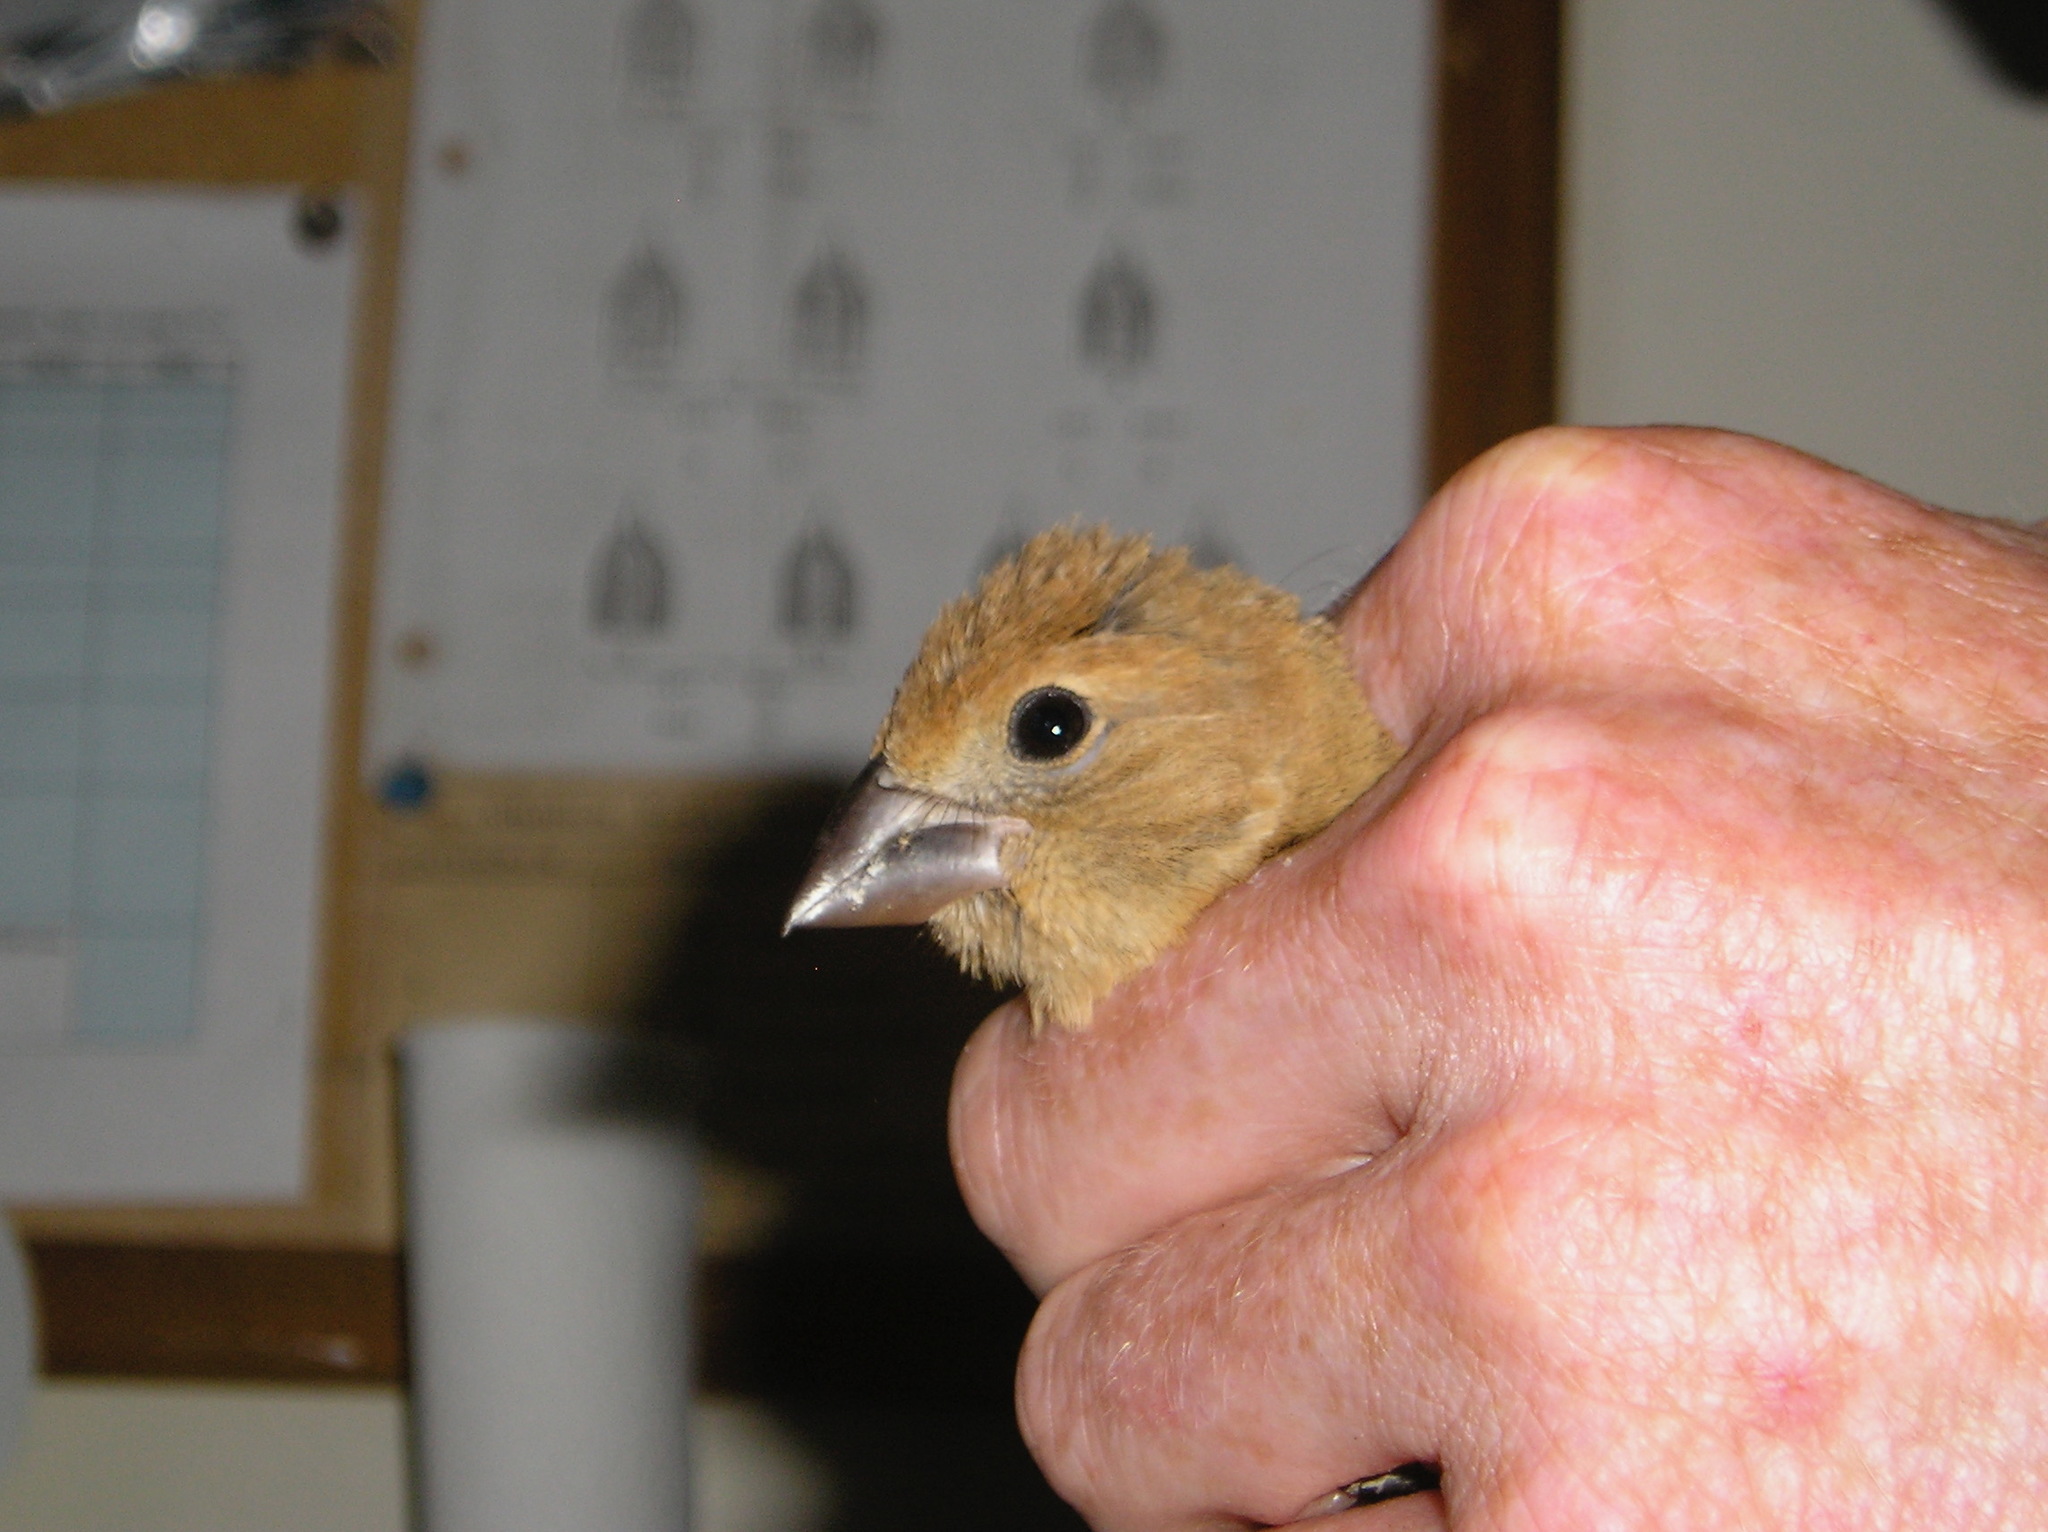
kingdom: Animalia
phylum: Chordata
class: Aves
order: Passeriformes
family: Cardinalidae
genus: Passerina
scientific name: Passerina caerulea
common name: Blue grosbeak
